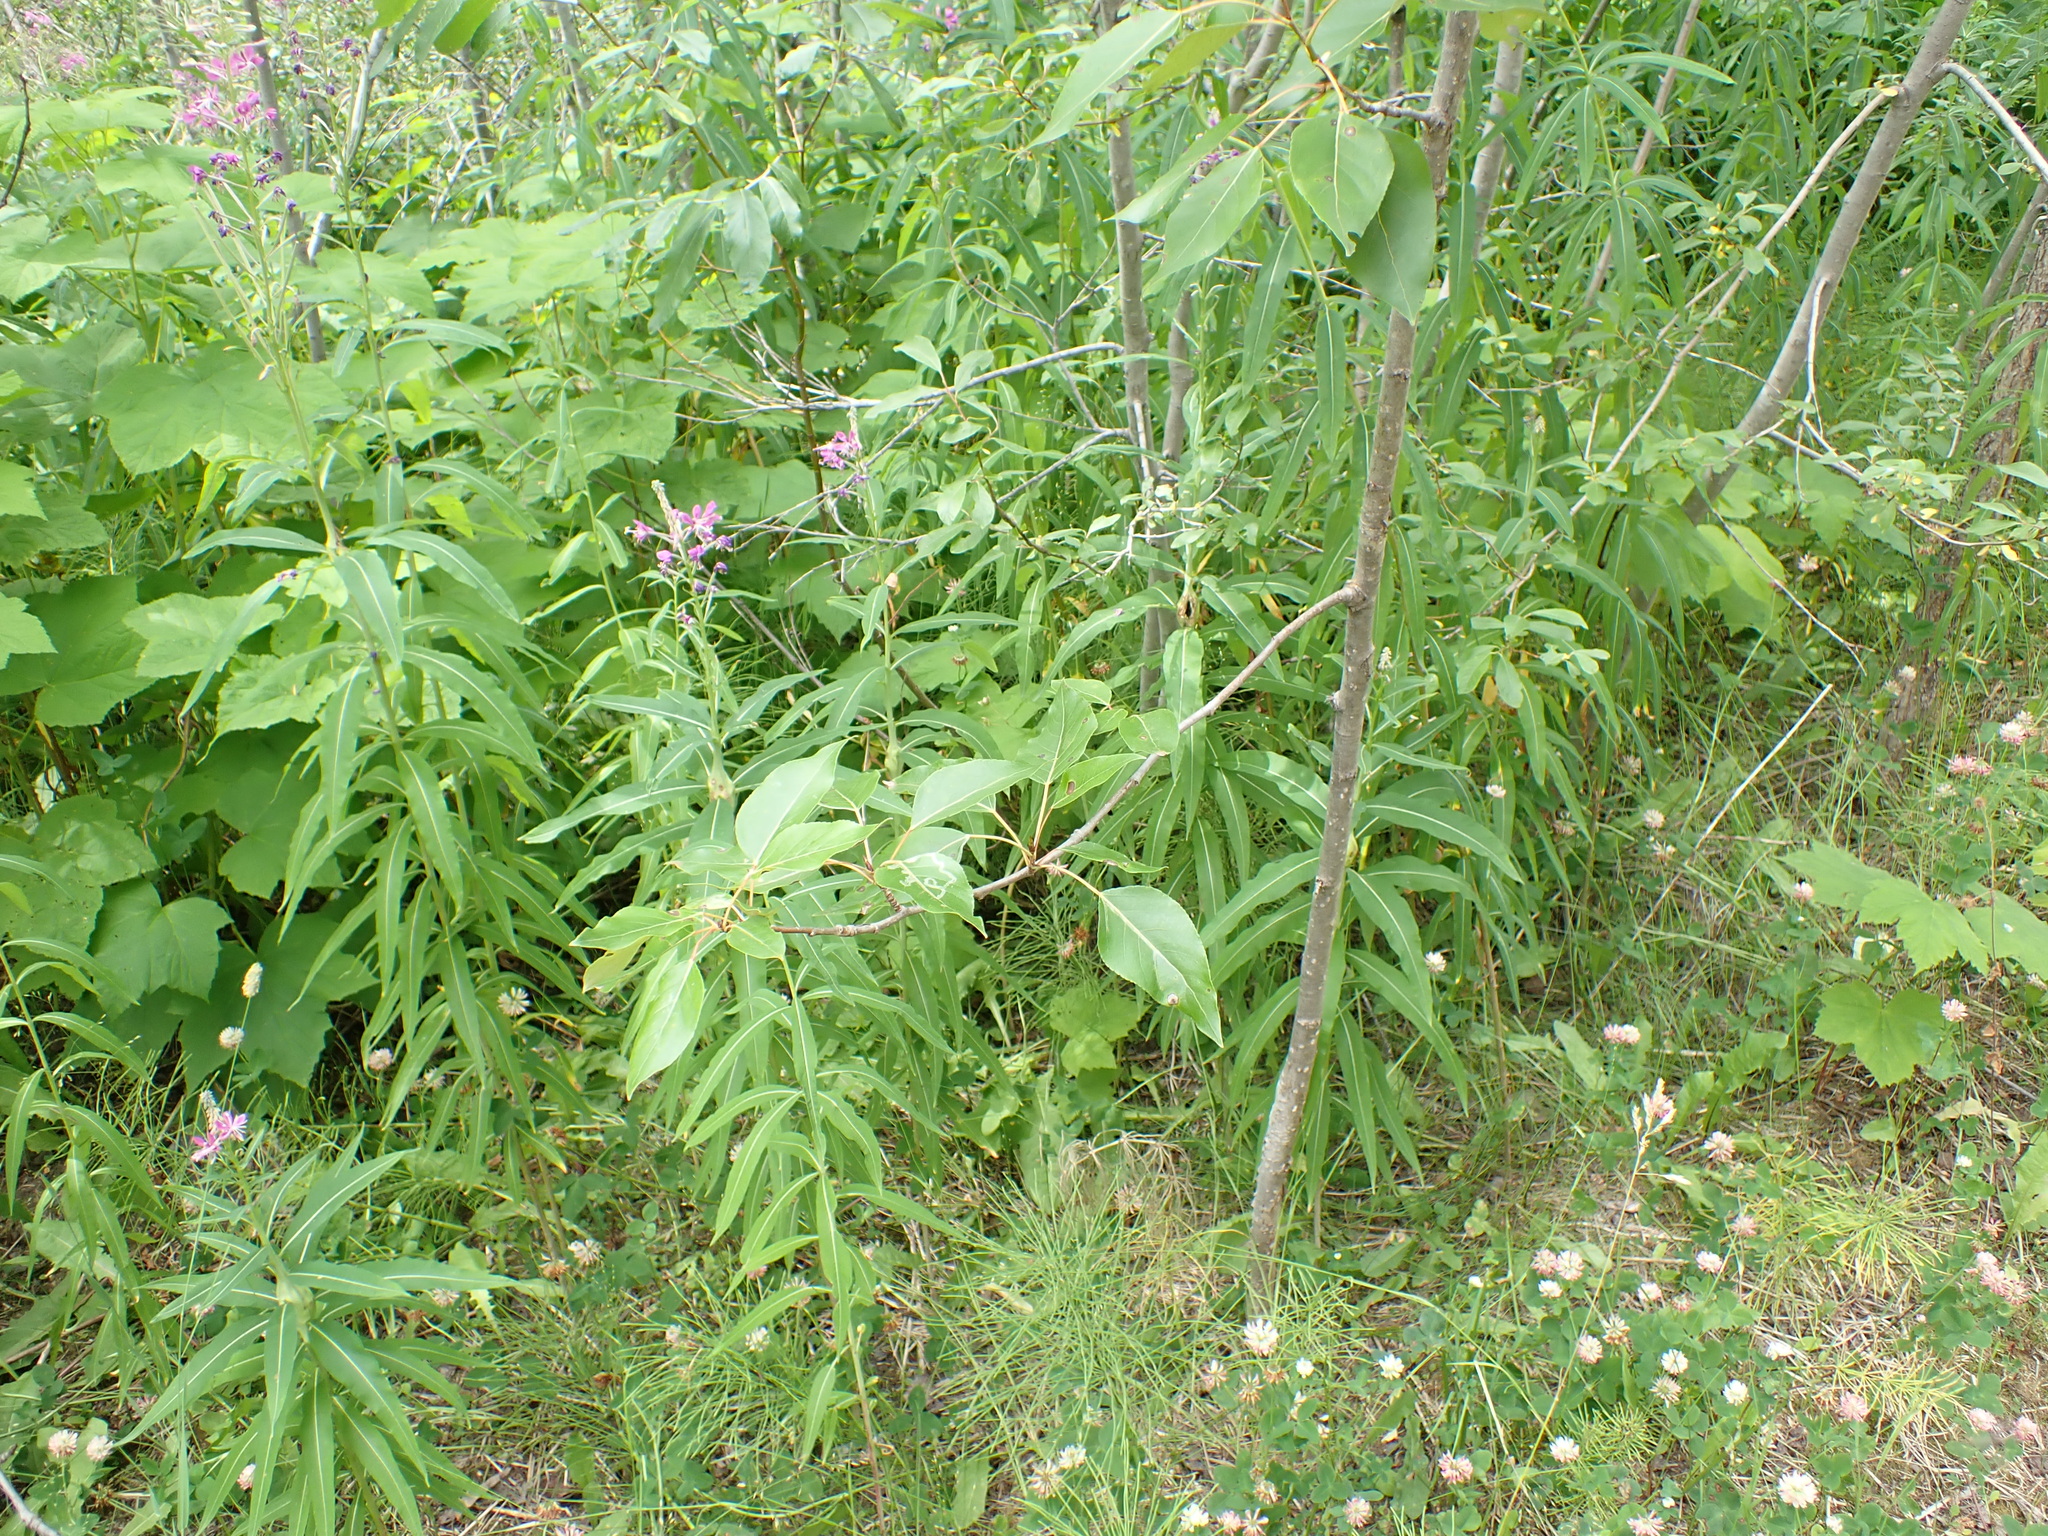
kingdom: Plantae
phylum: Tracheophyta
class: Magnoliopsida
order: Myrtales
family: Onagraceae
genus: Chamaenerion
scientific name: Chamaenerion angustifolium
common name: Fireweed
